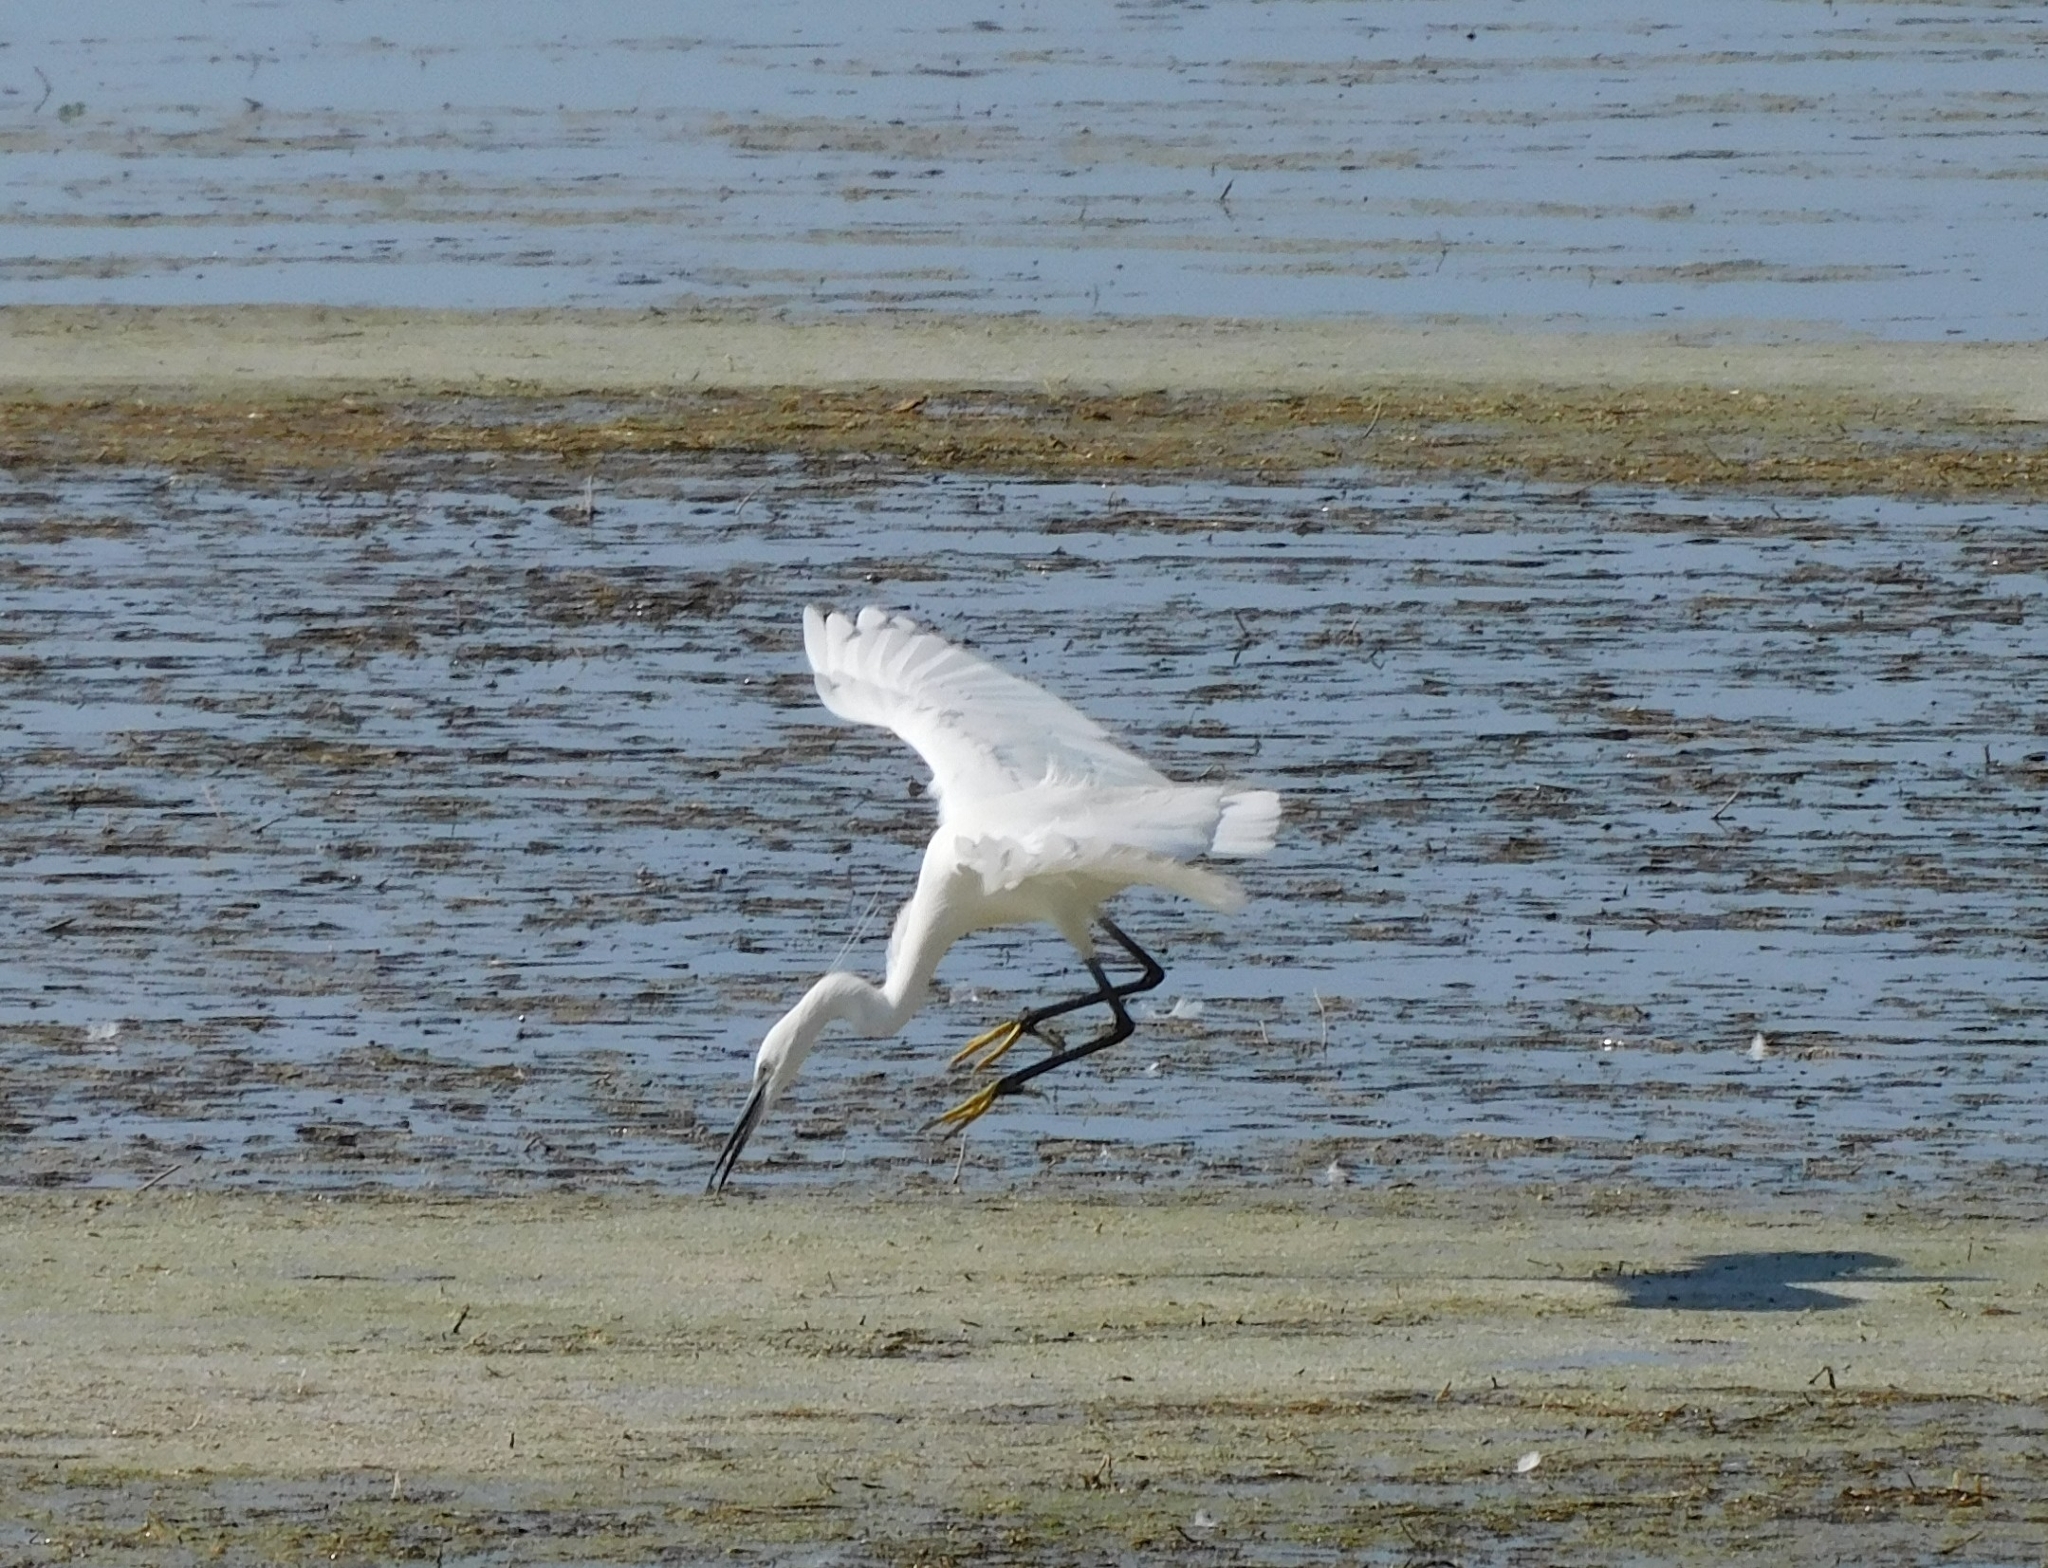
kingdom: Animalia
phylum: Chordata
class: Aves
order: Pelecaniformes
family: Ardeidae
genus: Egretta
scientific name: Egretta garzetta
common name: Little egret
